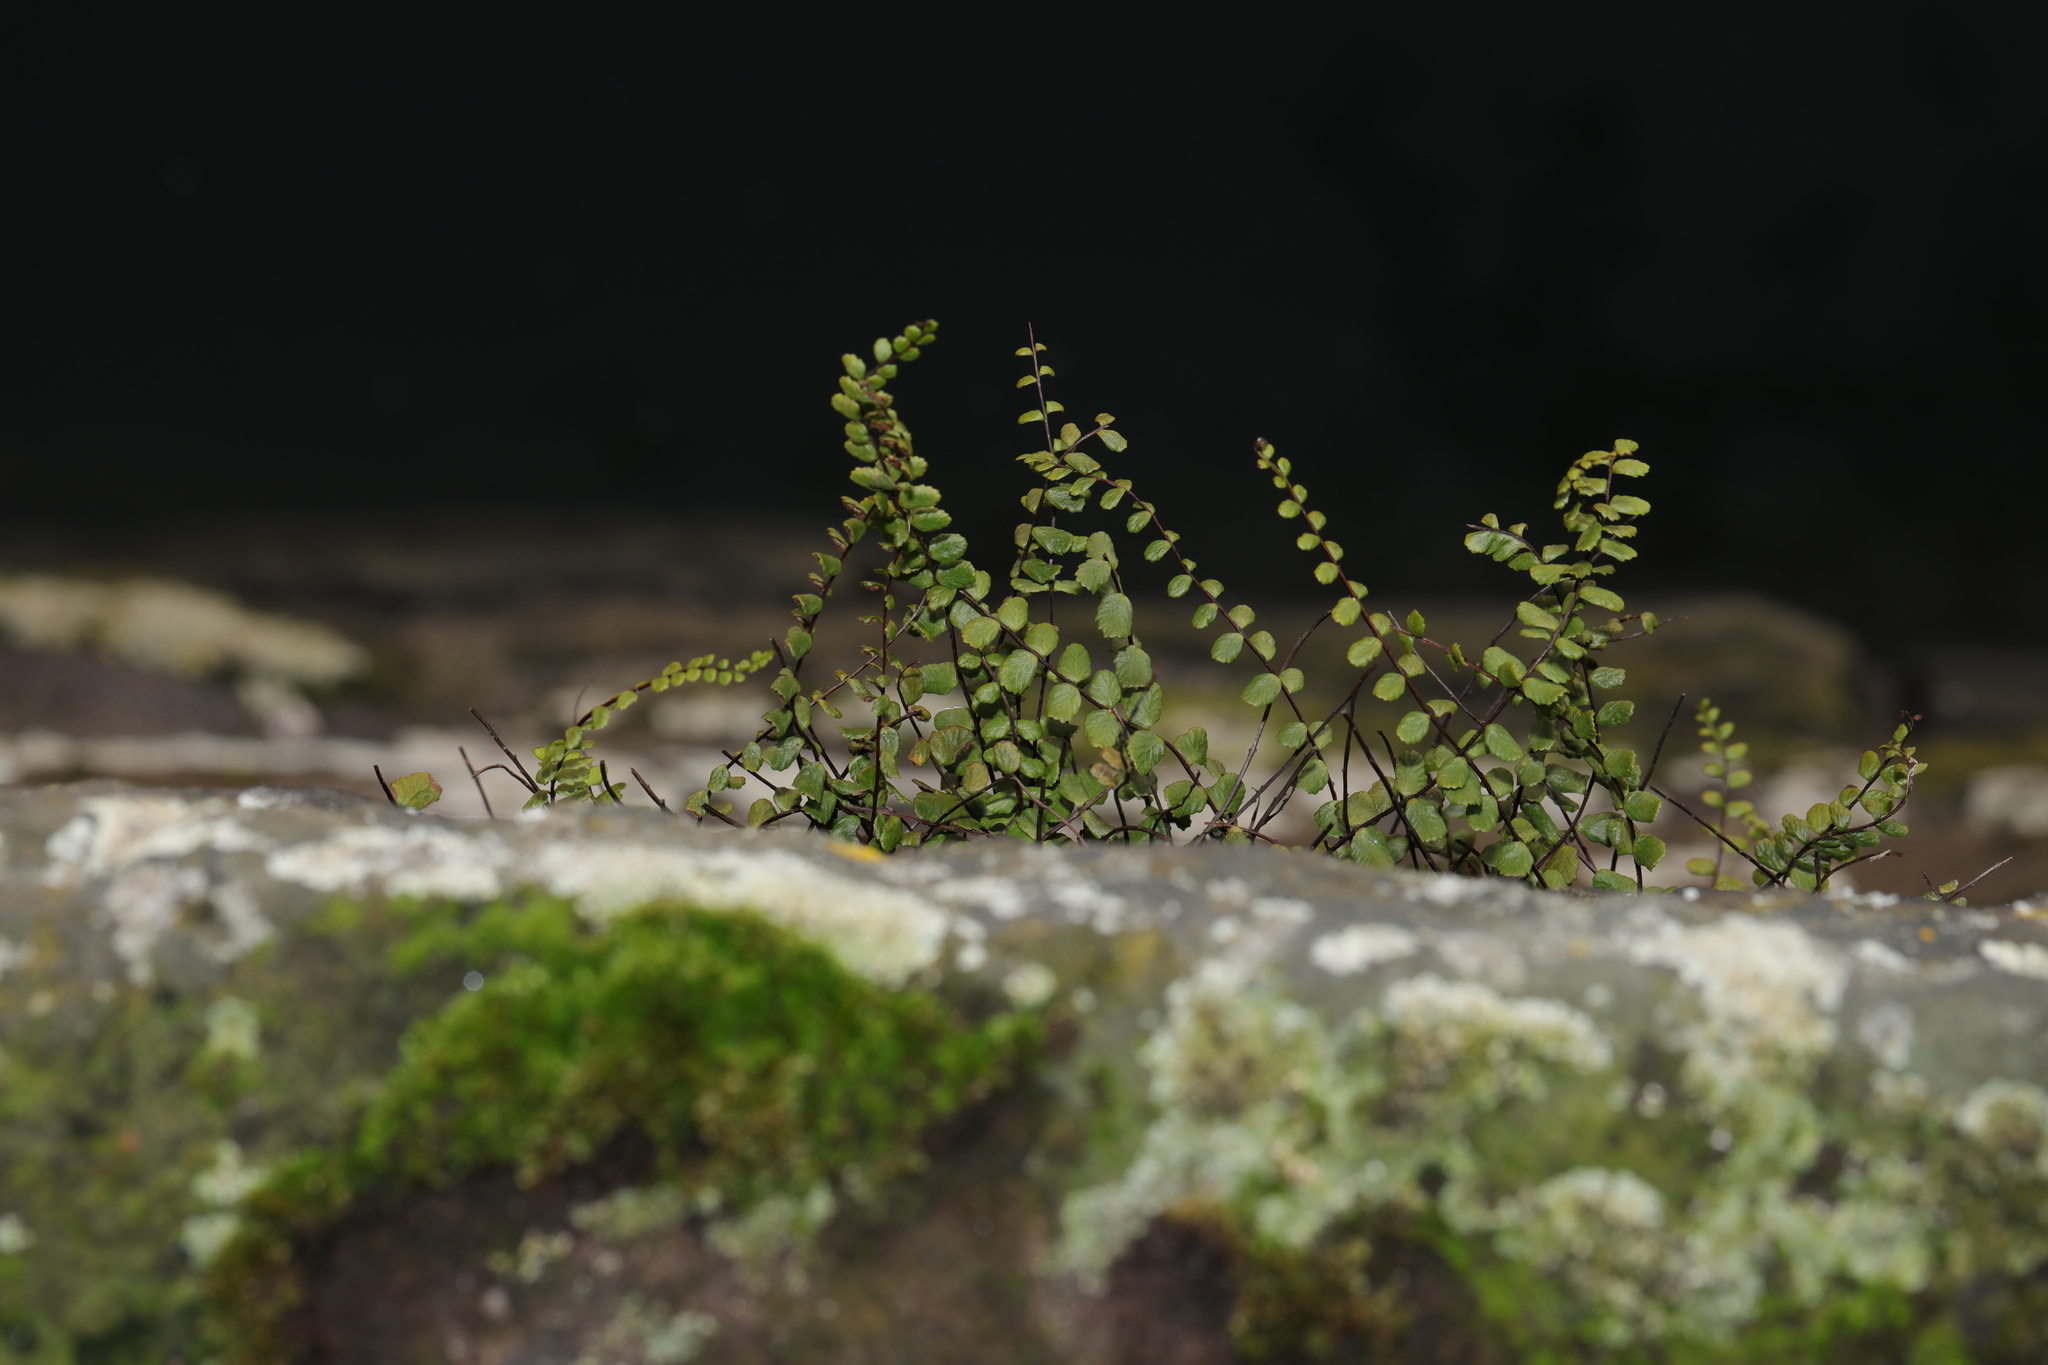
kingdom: Plantae
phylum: Tracheophyta
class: Polypodiopsida
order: Polypodiales
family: Aspleniaceae
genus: Asplenium
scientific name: Asplenium trichomanes
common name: Maidenhair spleenwort
